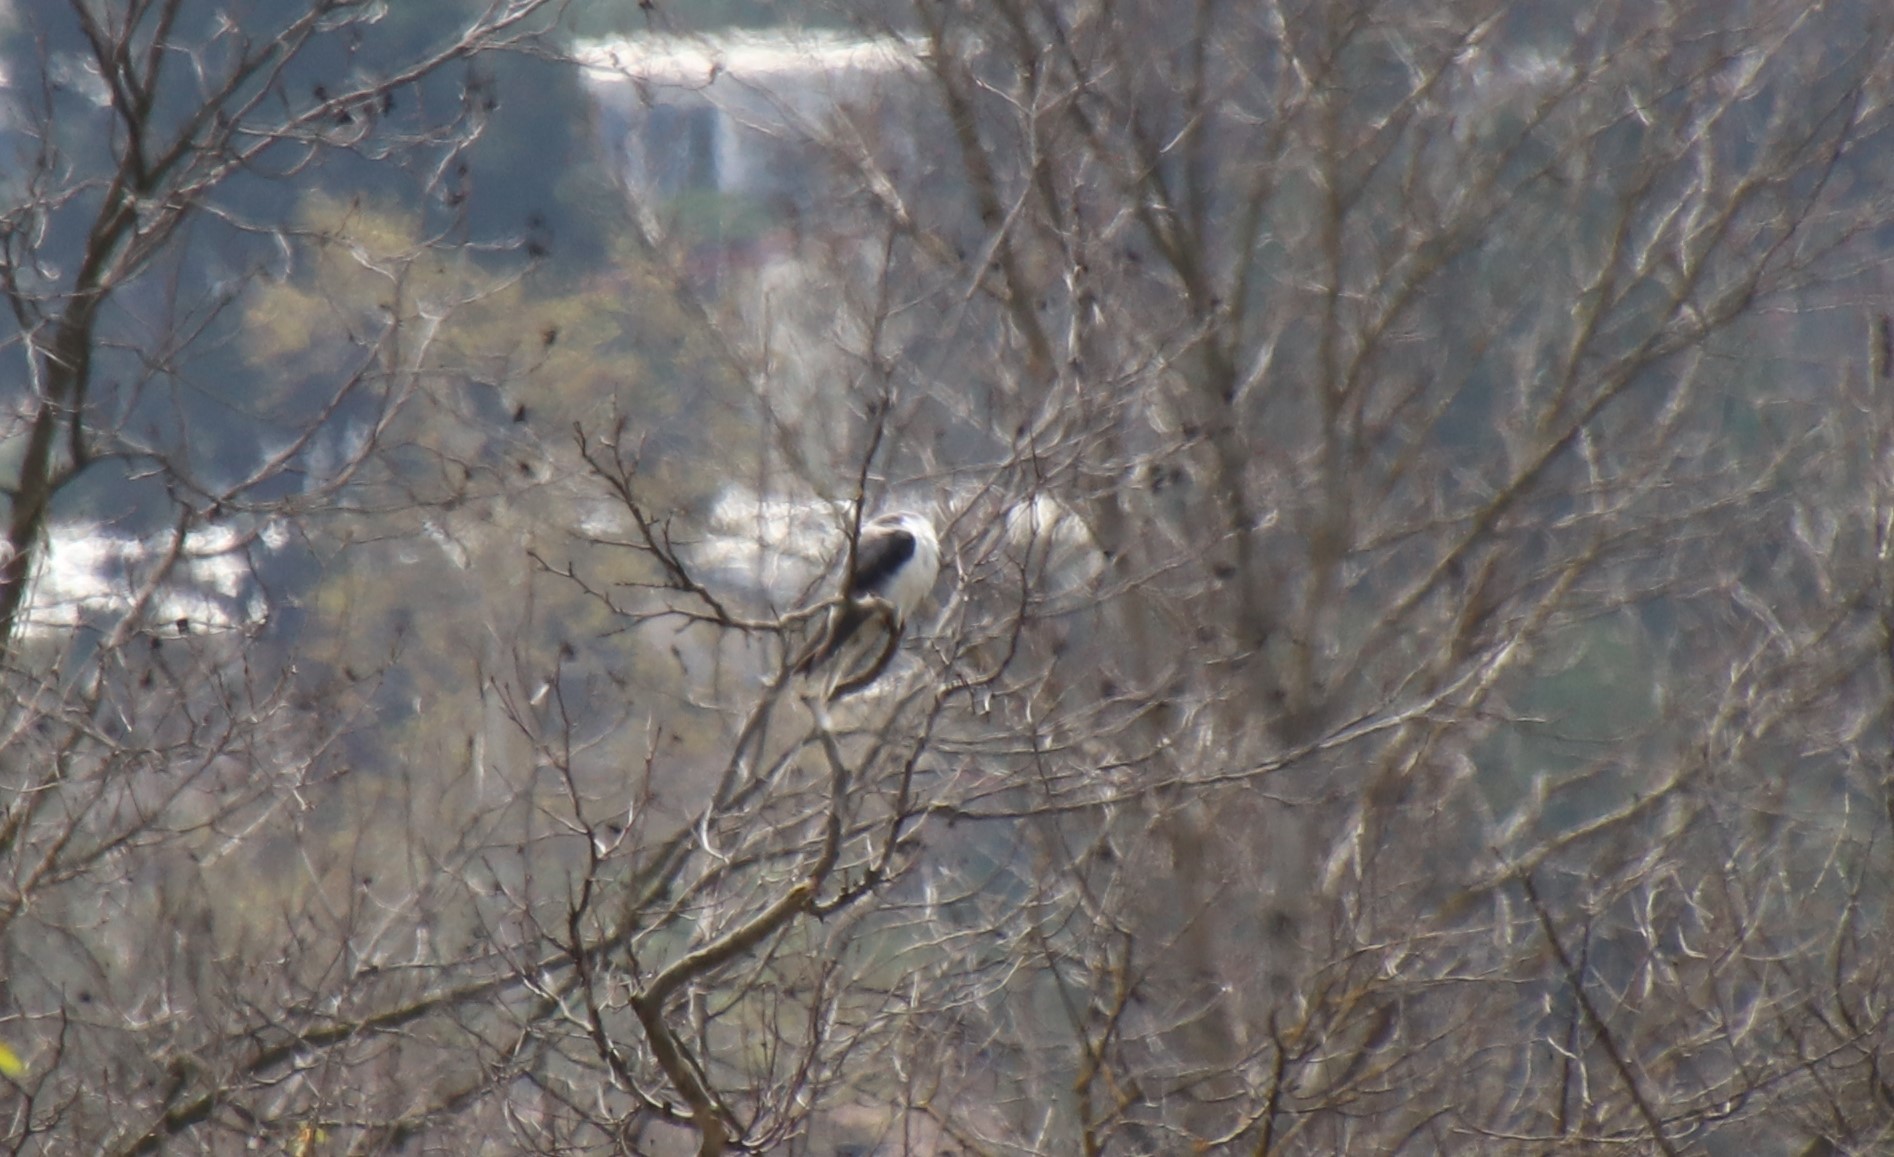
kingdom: Animalia
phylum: Chordata
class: Aves
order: Accipitriformes
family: Accipitridae
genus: Elanus
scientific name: Elanus leucurus
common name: White-tailed kite
